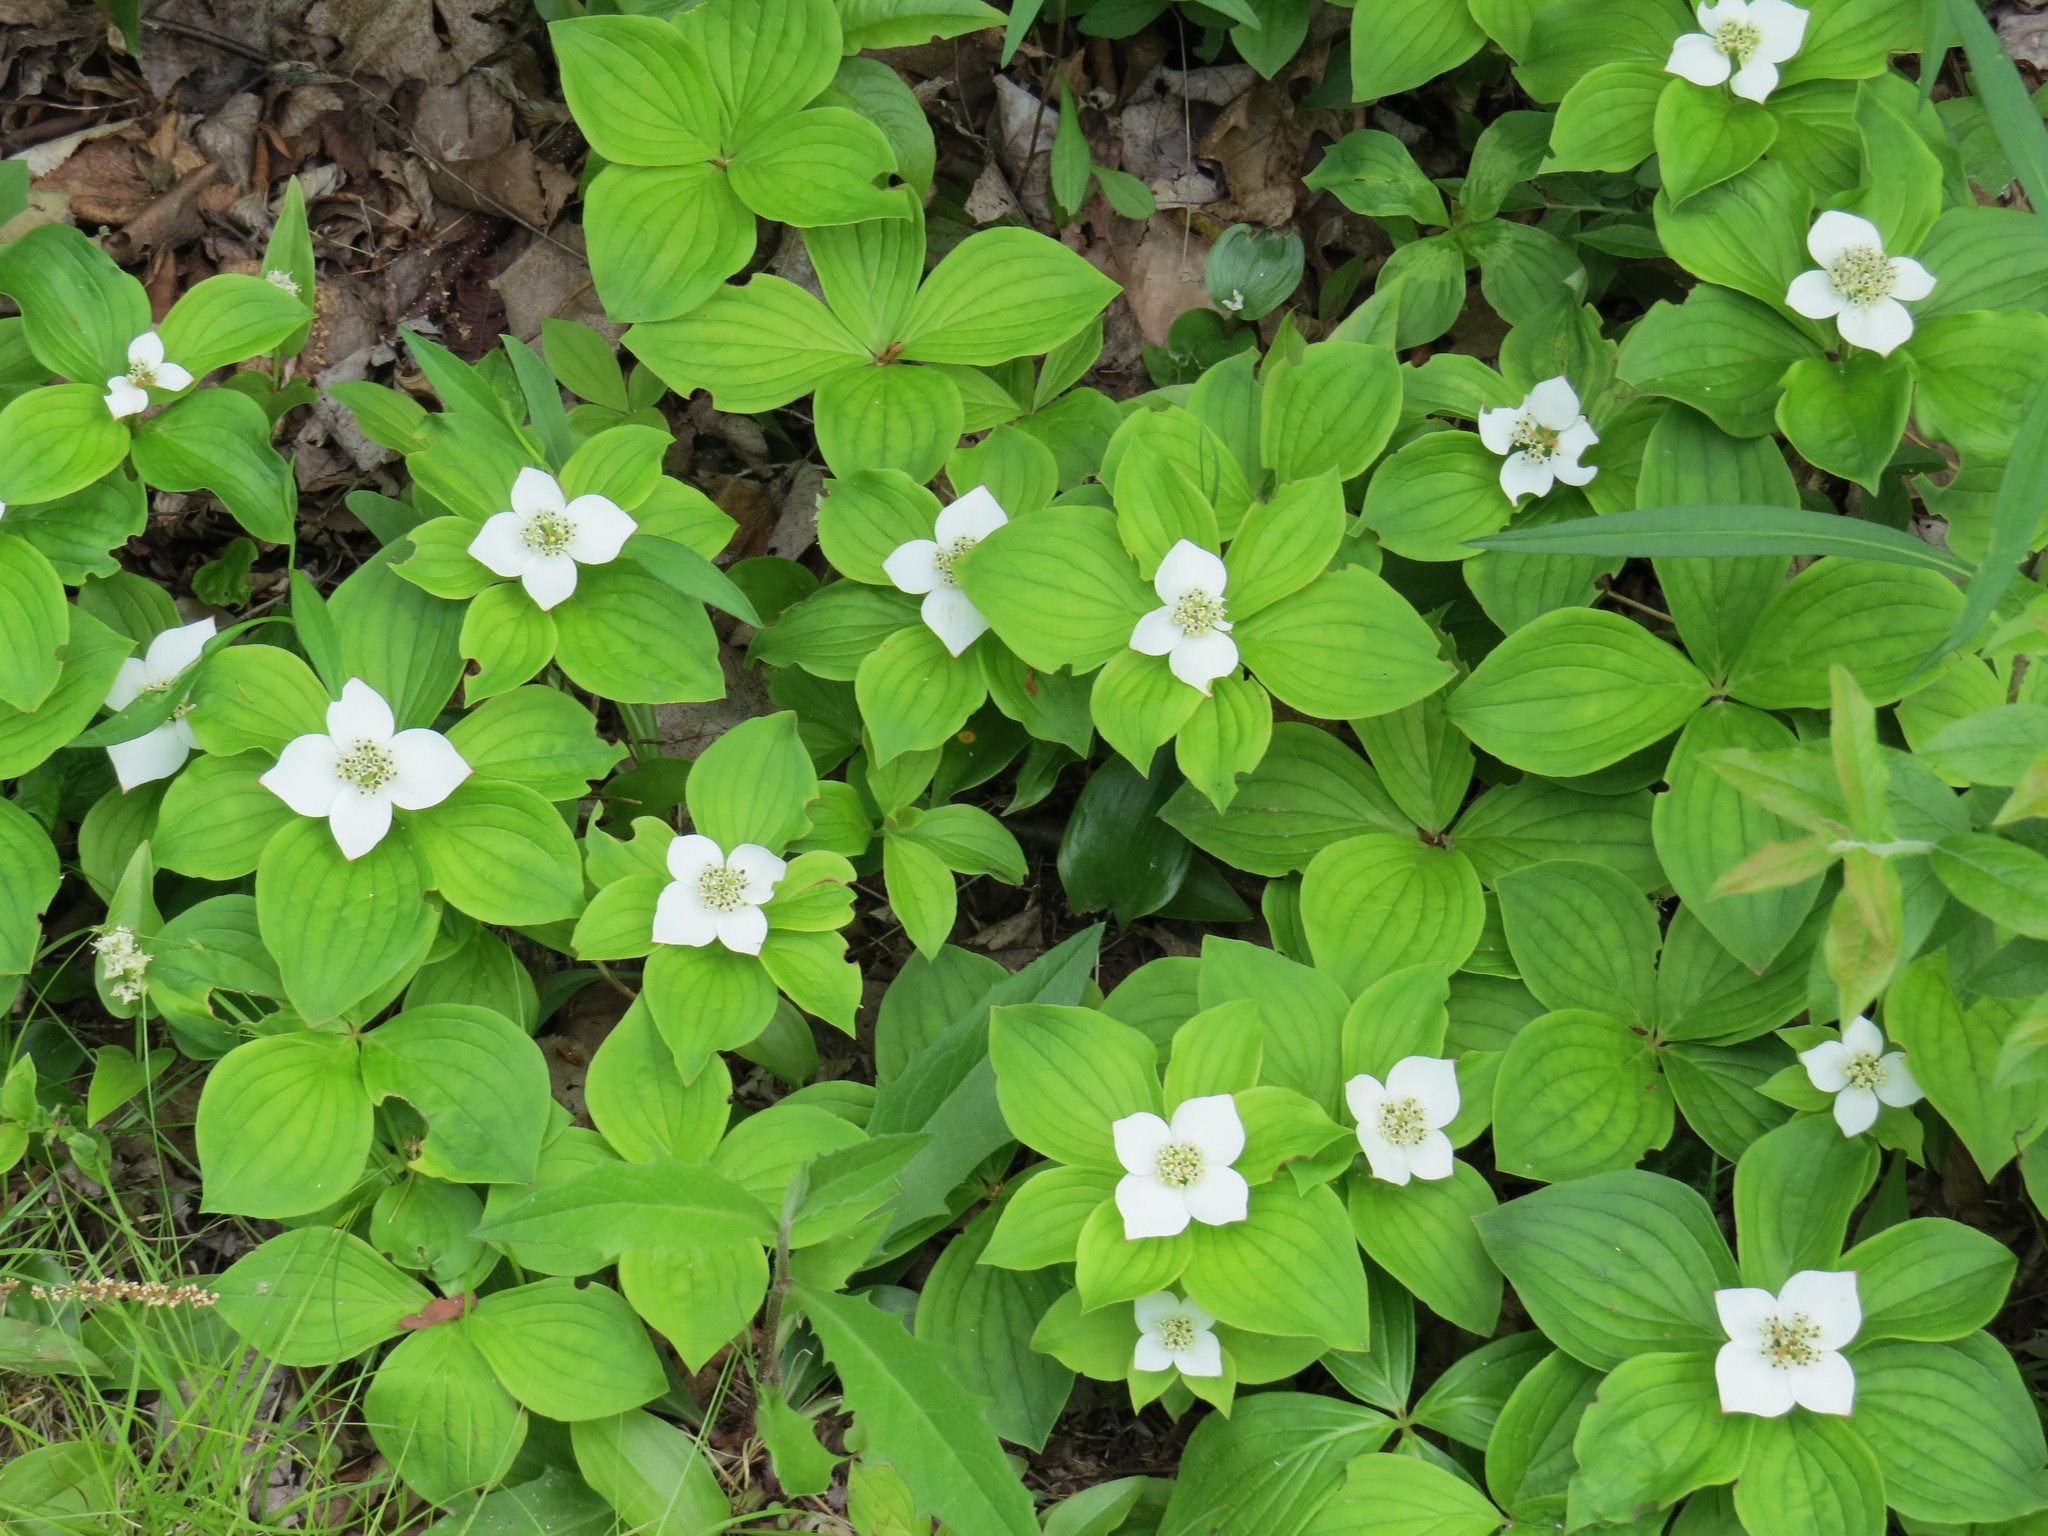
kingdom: Plantae
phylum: Tracheophyta
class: Magnoliopsida
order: Cornales
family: Cornaceae
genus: Cornus
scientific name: Cornus canadensis
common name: Creeping dogwood
